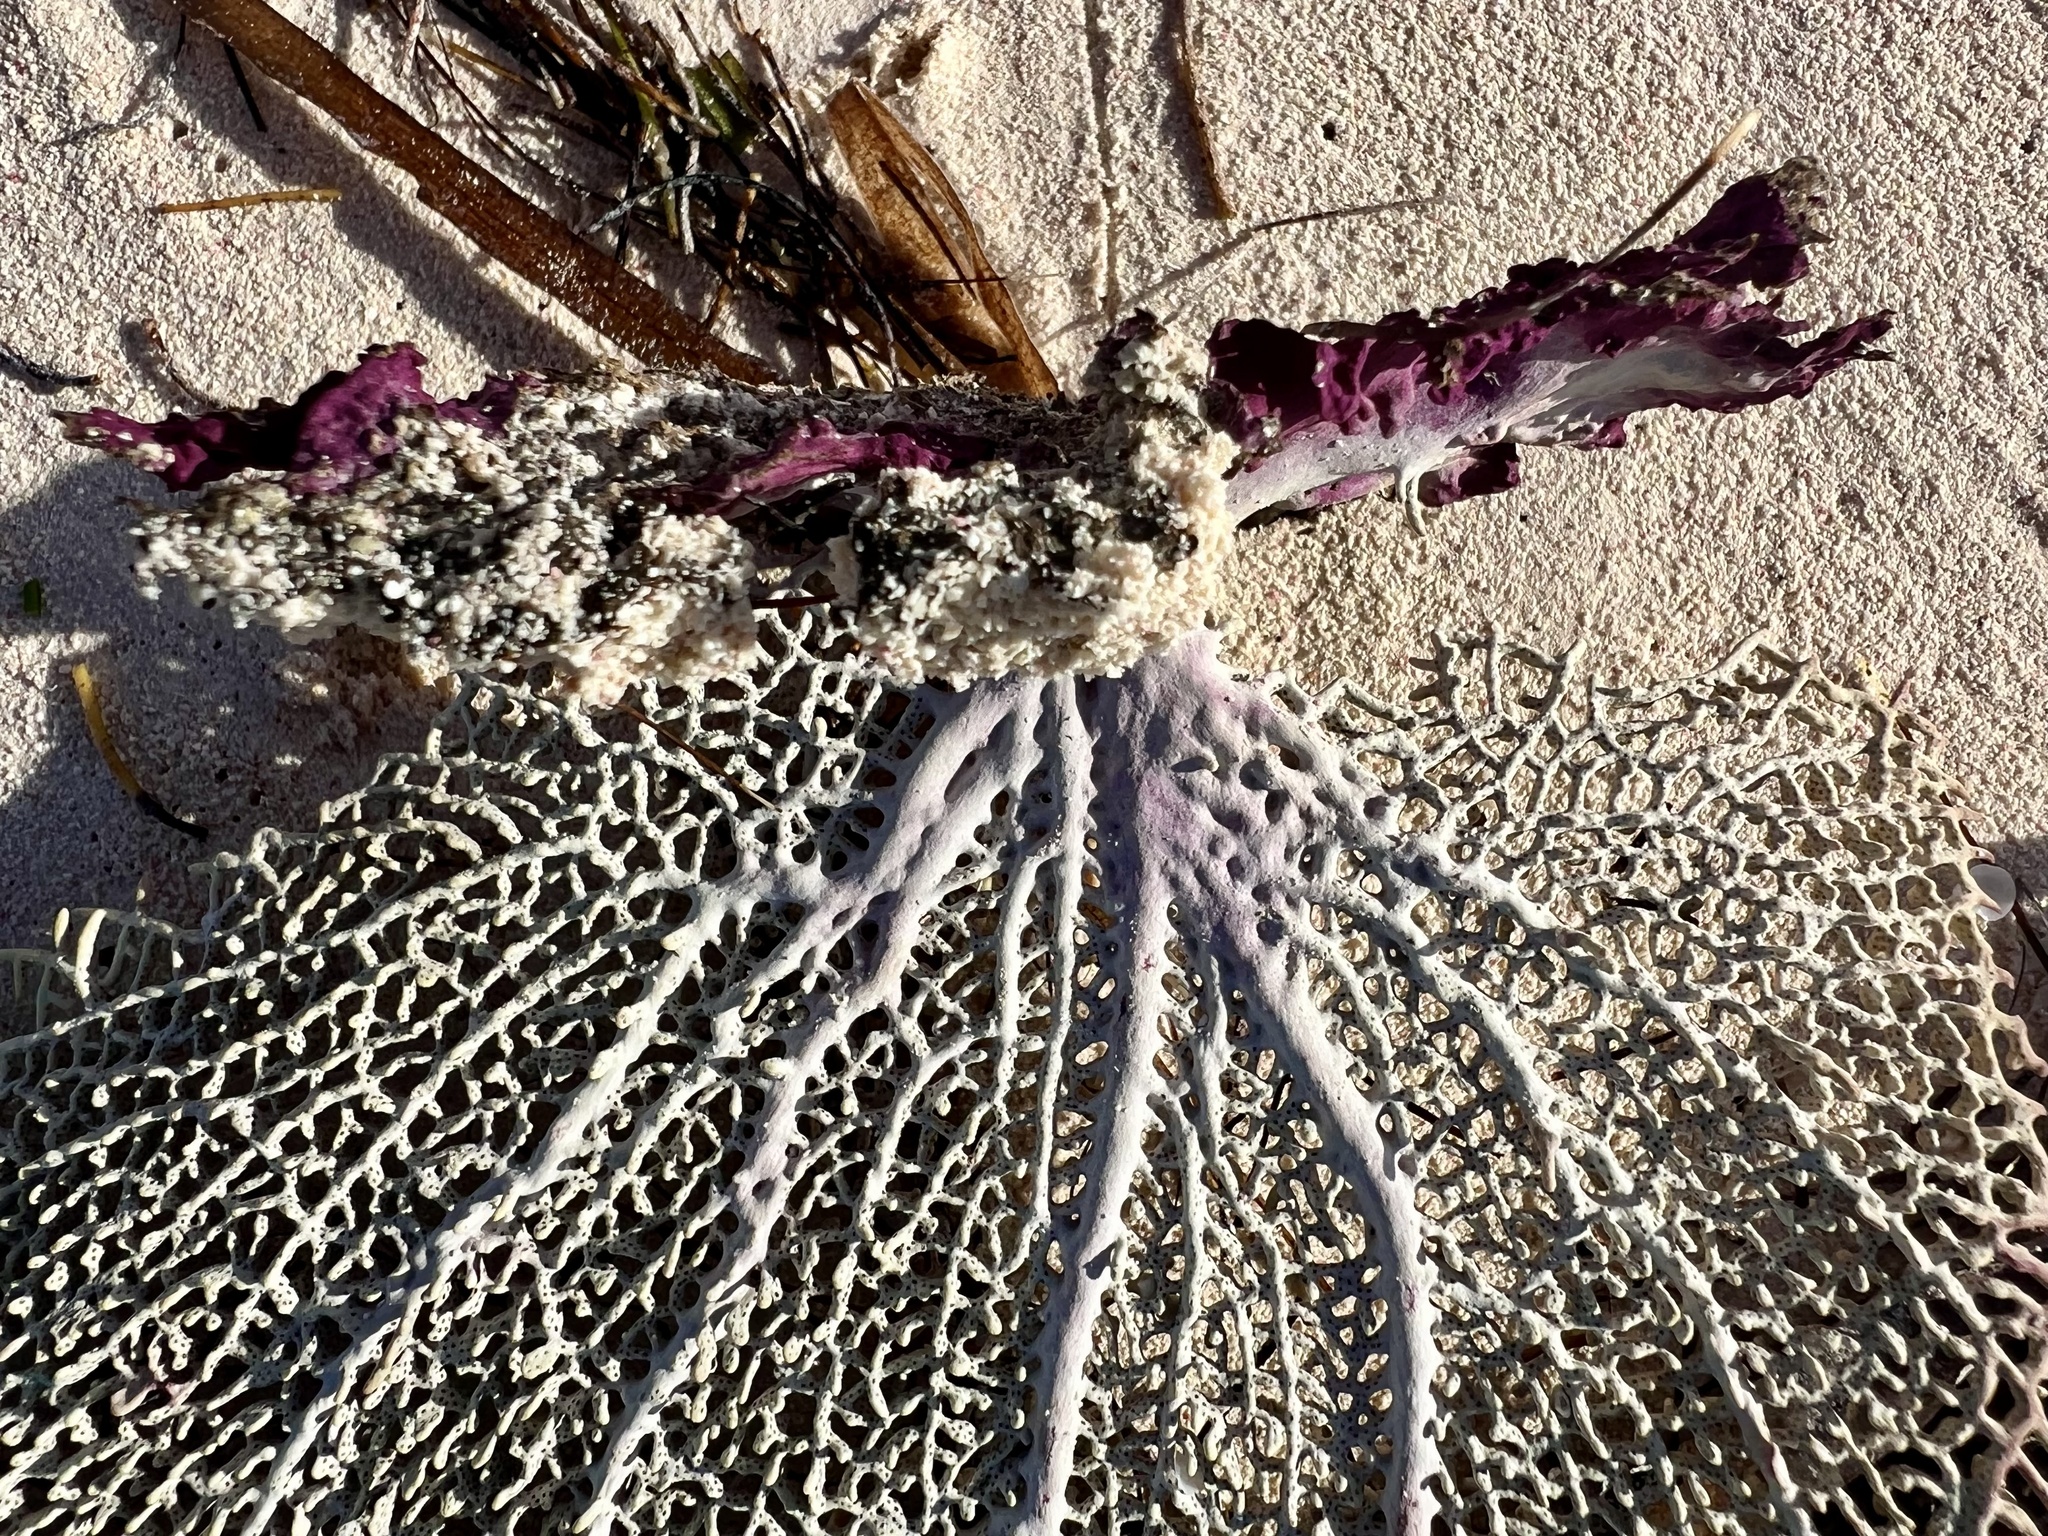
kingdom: Animalia
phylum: Cnidaria
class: Anthozoa
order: Malacalcyonacea
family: Gorgoniidae
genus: Gorgonia
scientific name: Gorgonia ventalina
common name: Common sea fan
